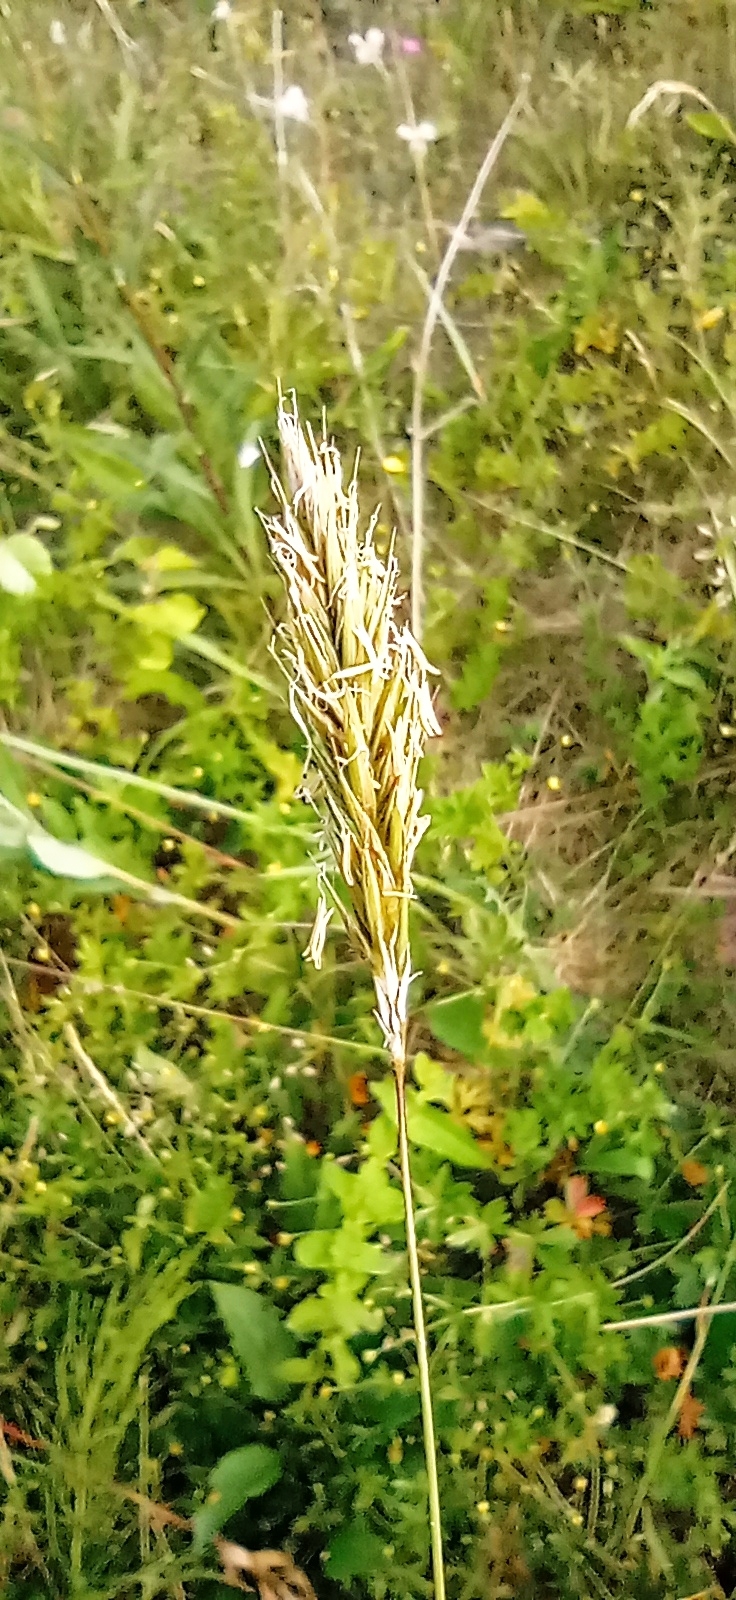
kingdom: Plantae
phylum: Tracheophyta
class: Liliopsida
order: Poales
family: Poaceae
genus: Anthoxanthum
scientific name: Anthoxanthum odoratum
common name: Sweet vernalgrass
